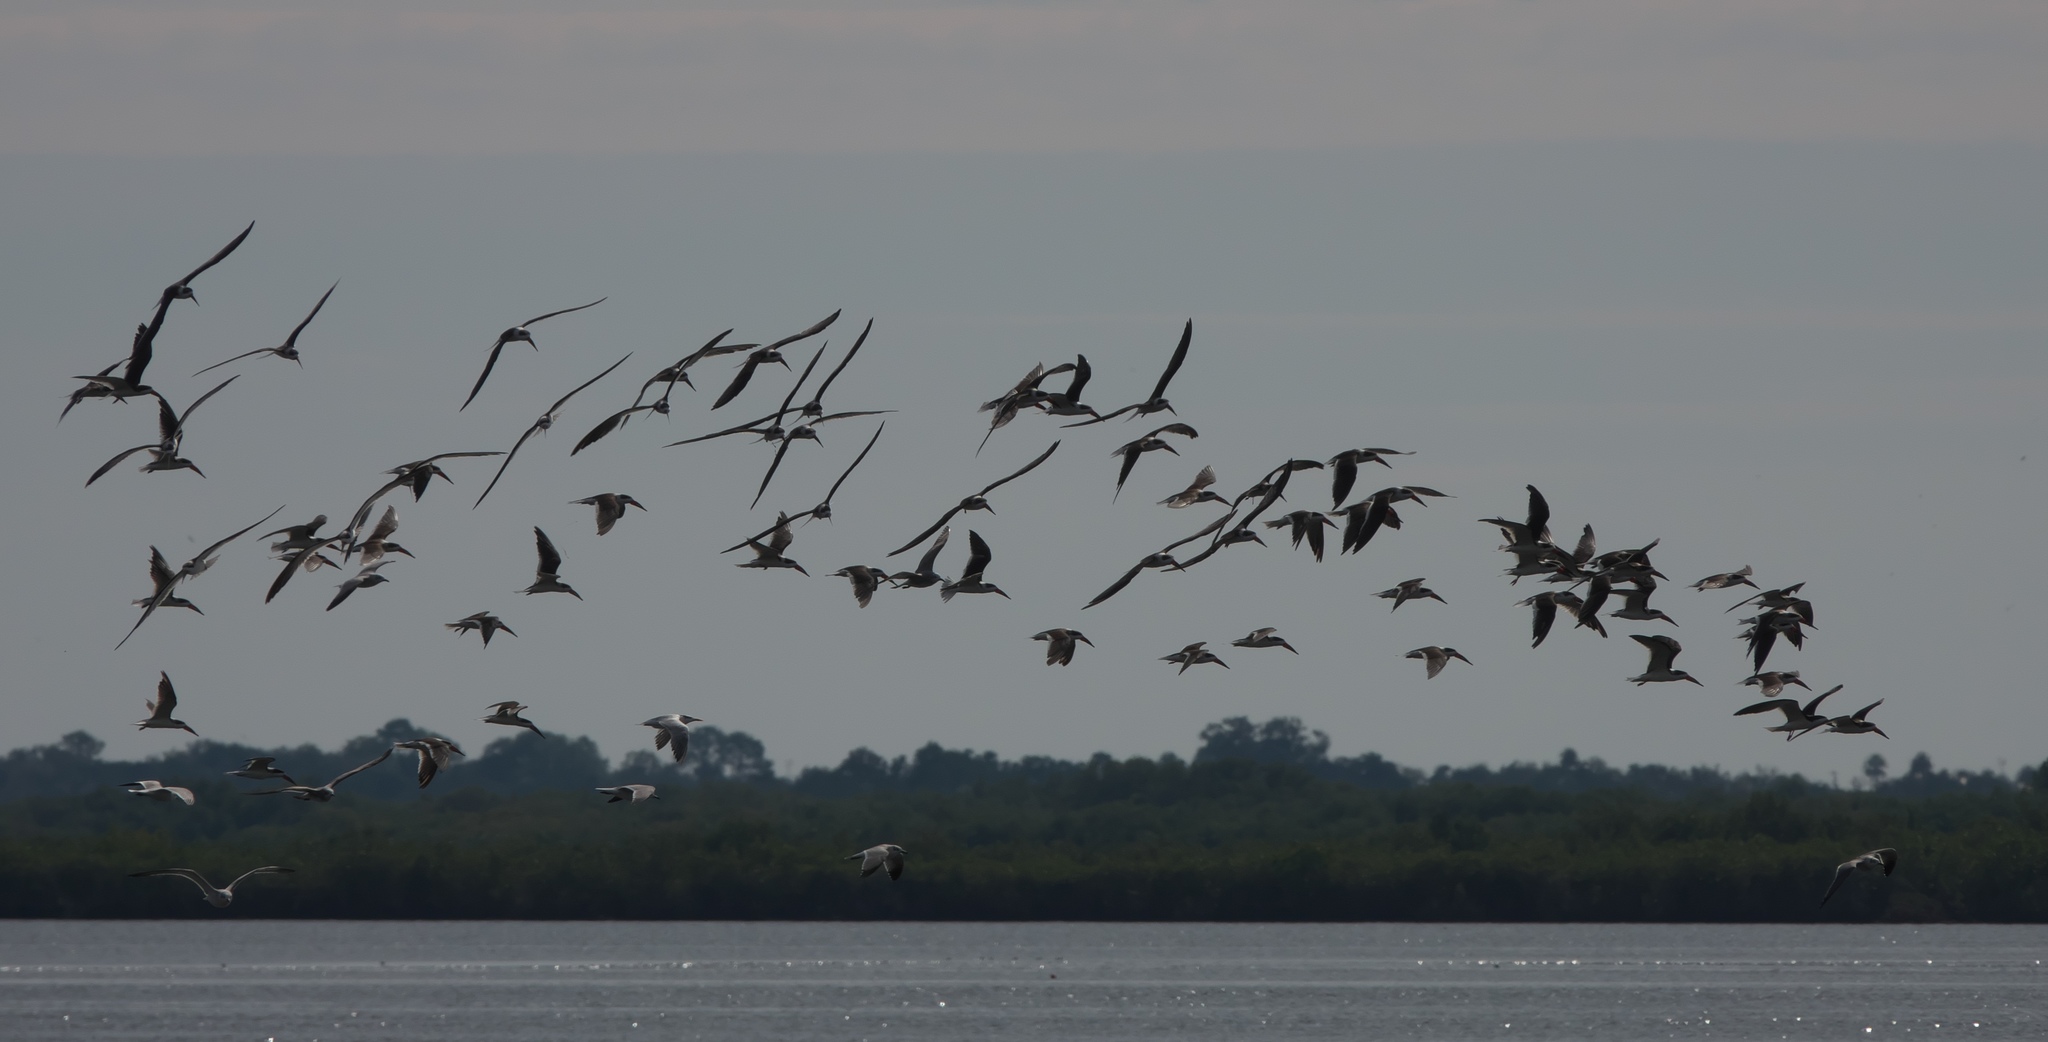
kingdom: Animalia
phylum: Chordata
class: Aves
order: Charadriiformes
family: Laridae
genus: Rynchops
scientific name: Rynchops niger
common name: Black skimmer
